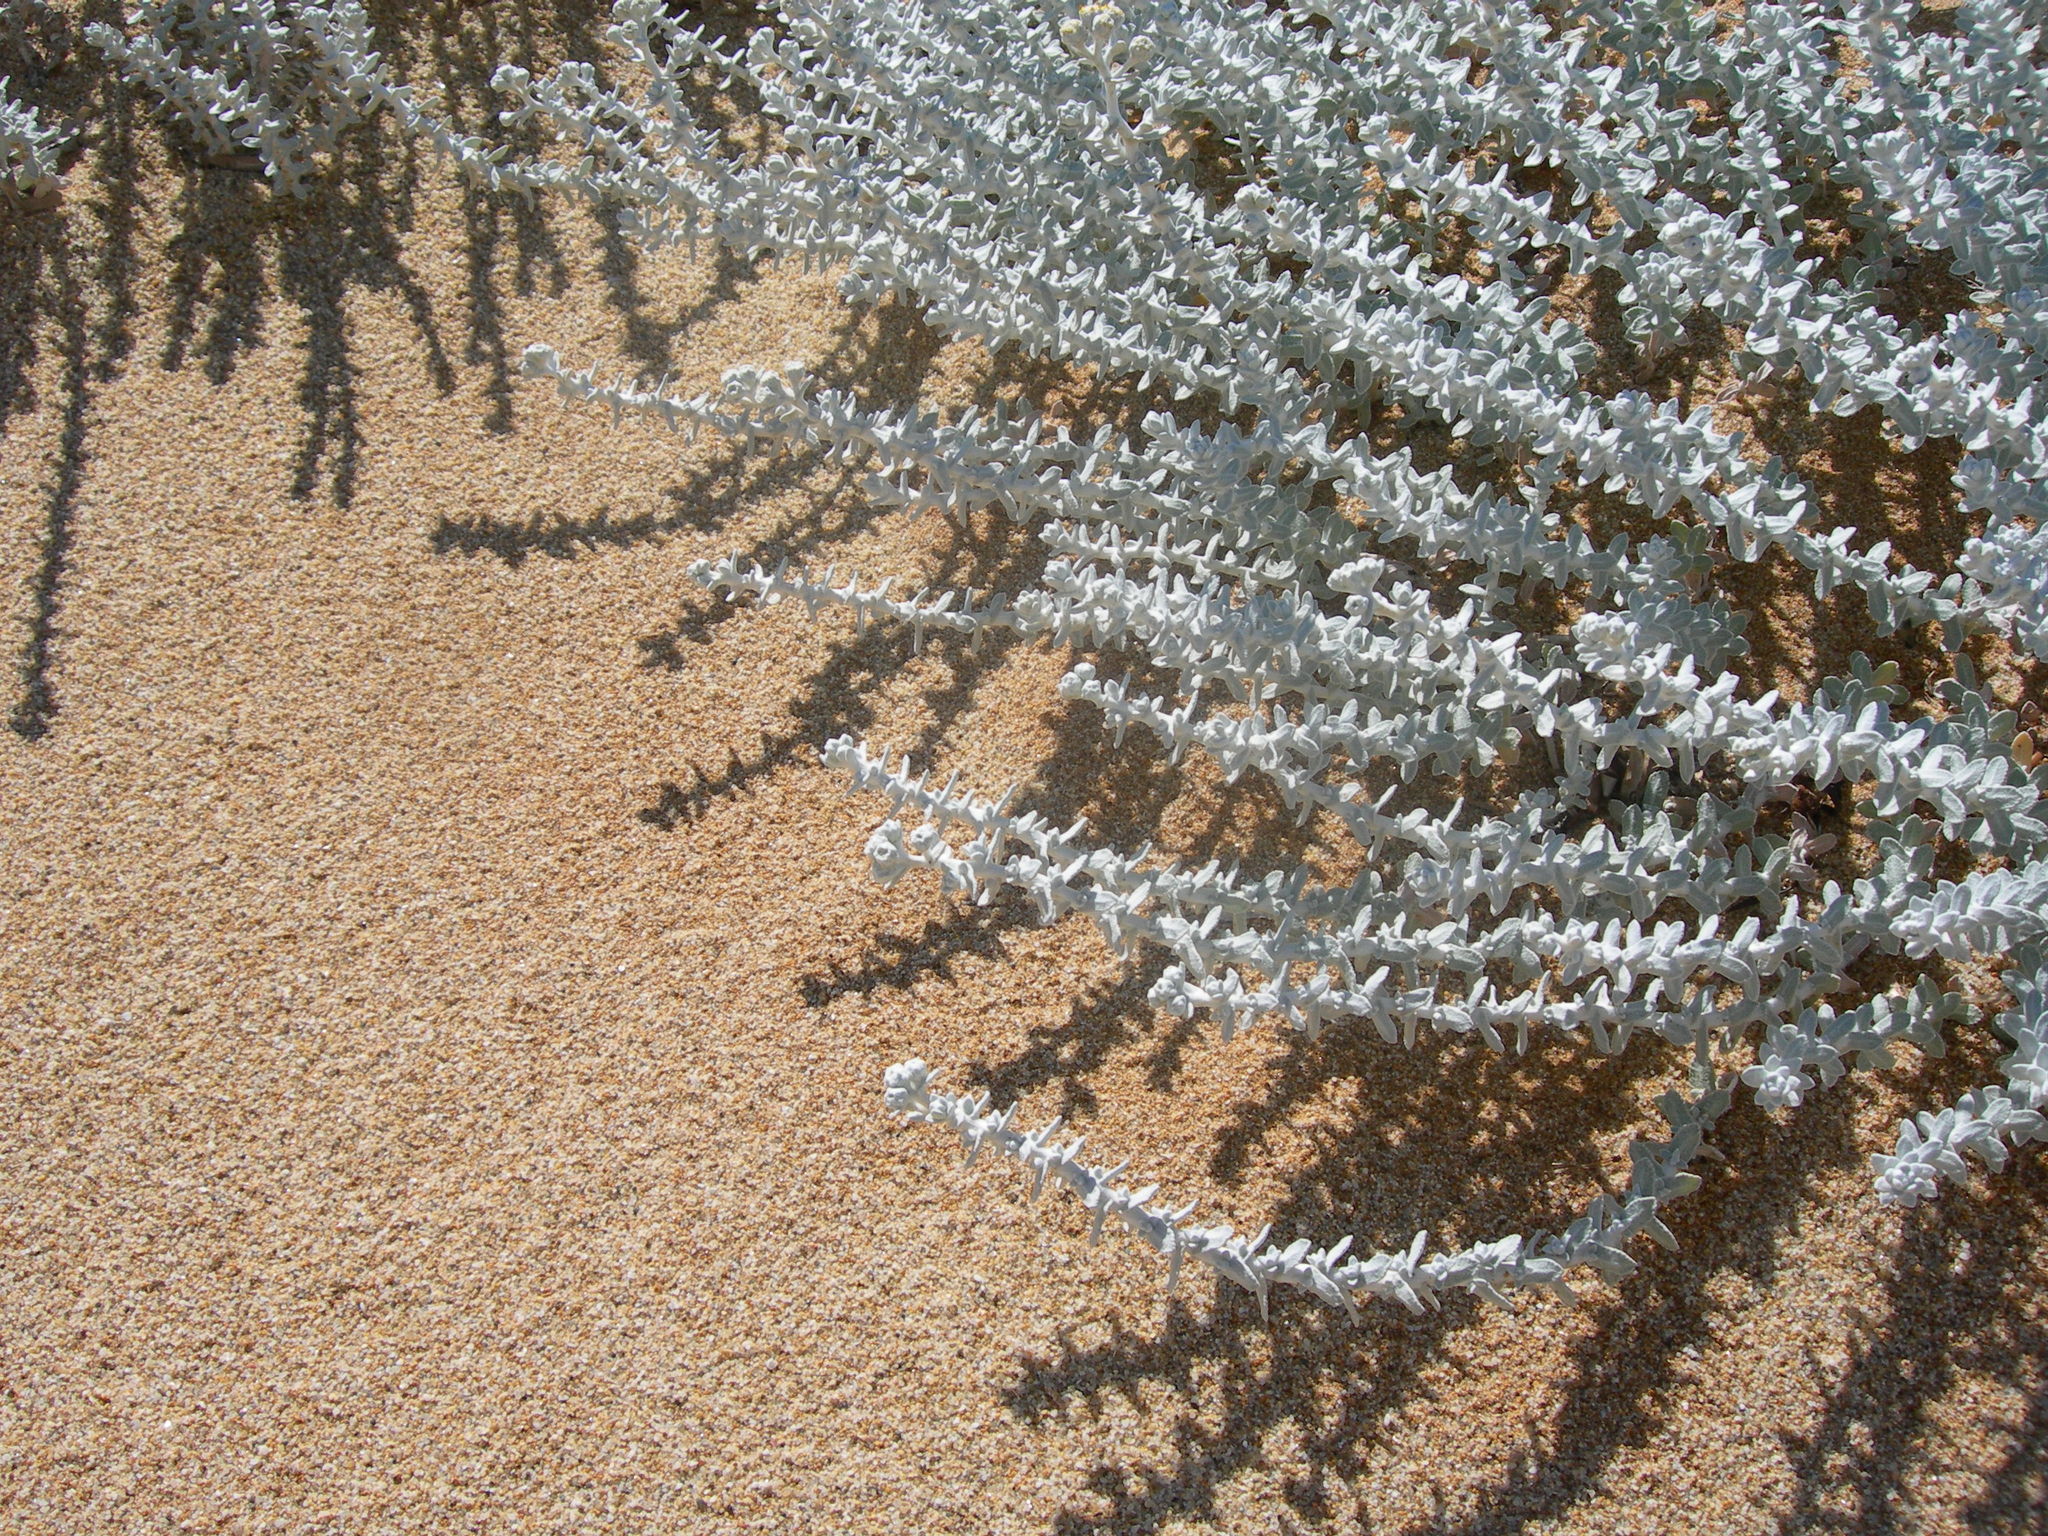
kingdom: Plantae
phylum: Tracheophyta
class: Magnoliopsida
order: Asterales
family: Asteraceae
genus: Achillea
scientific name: Achillea maritima
